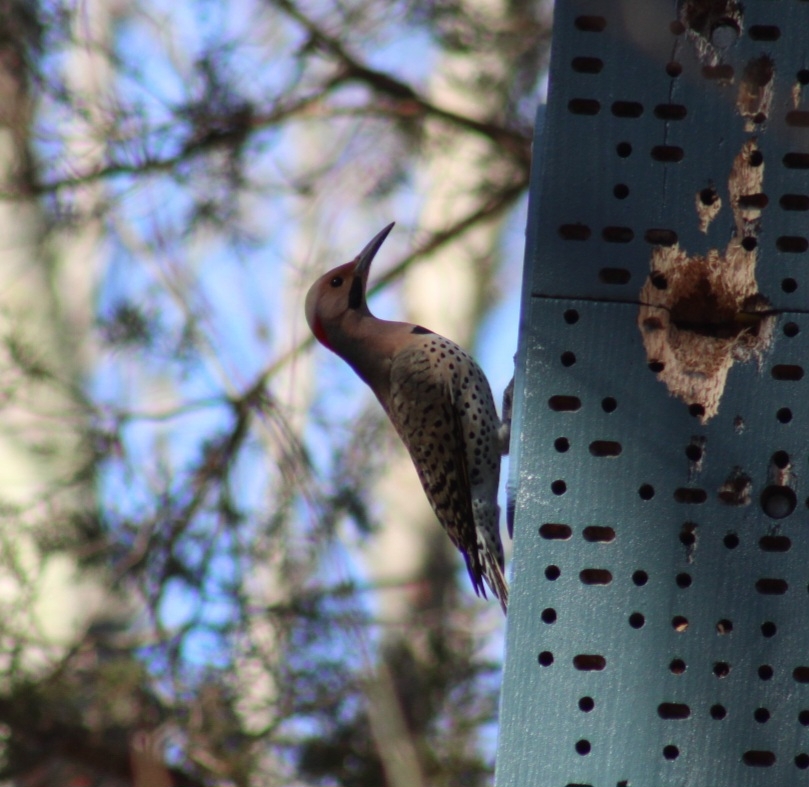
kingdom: Animalia
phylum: Chordata
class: Aves
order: Piciformes
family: Picidae
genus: Colaptes
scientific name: Colaptes auratus
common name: Northern flicker
